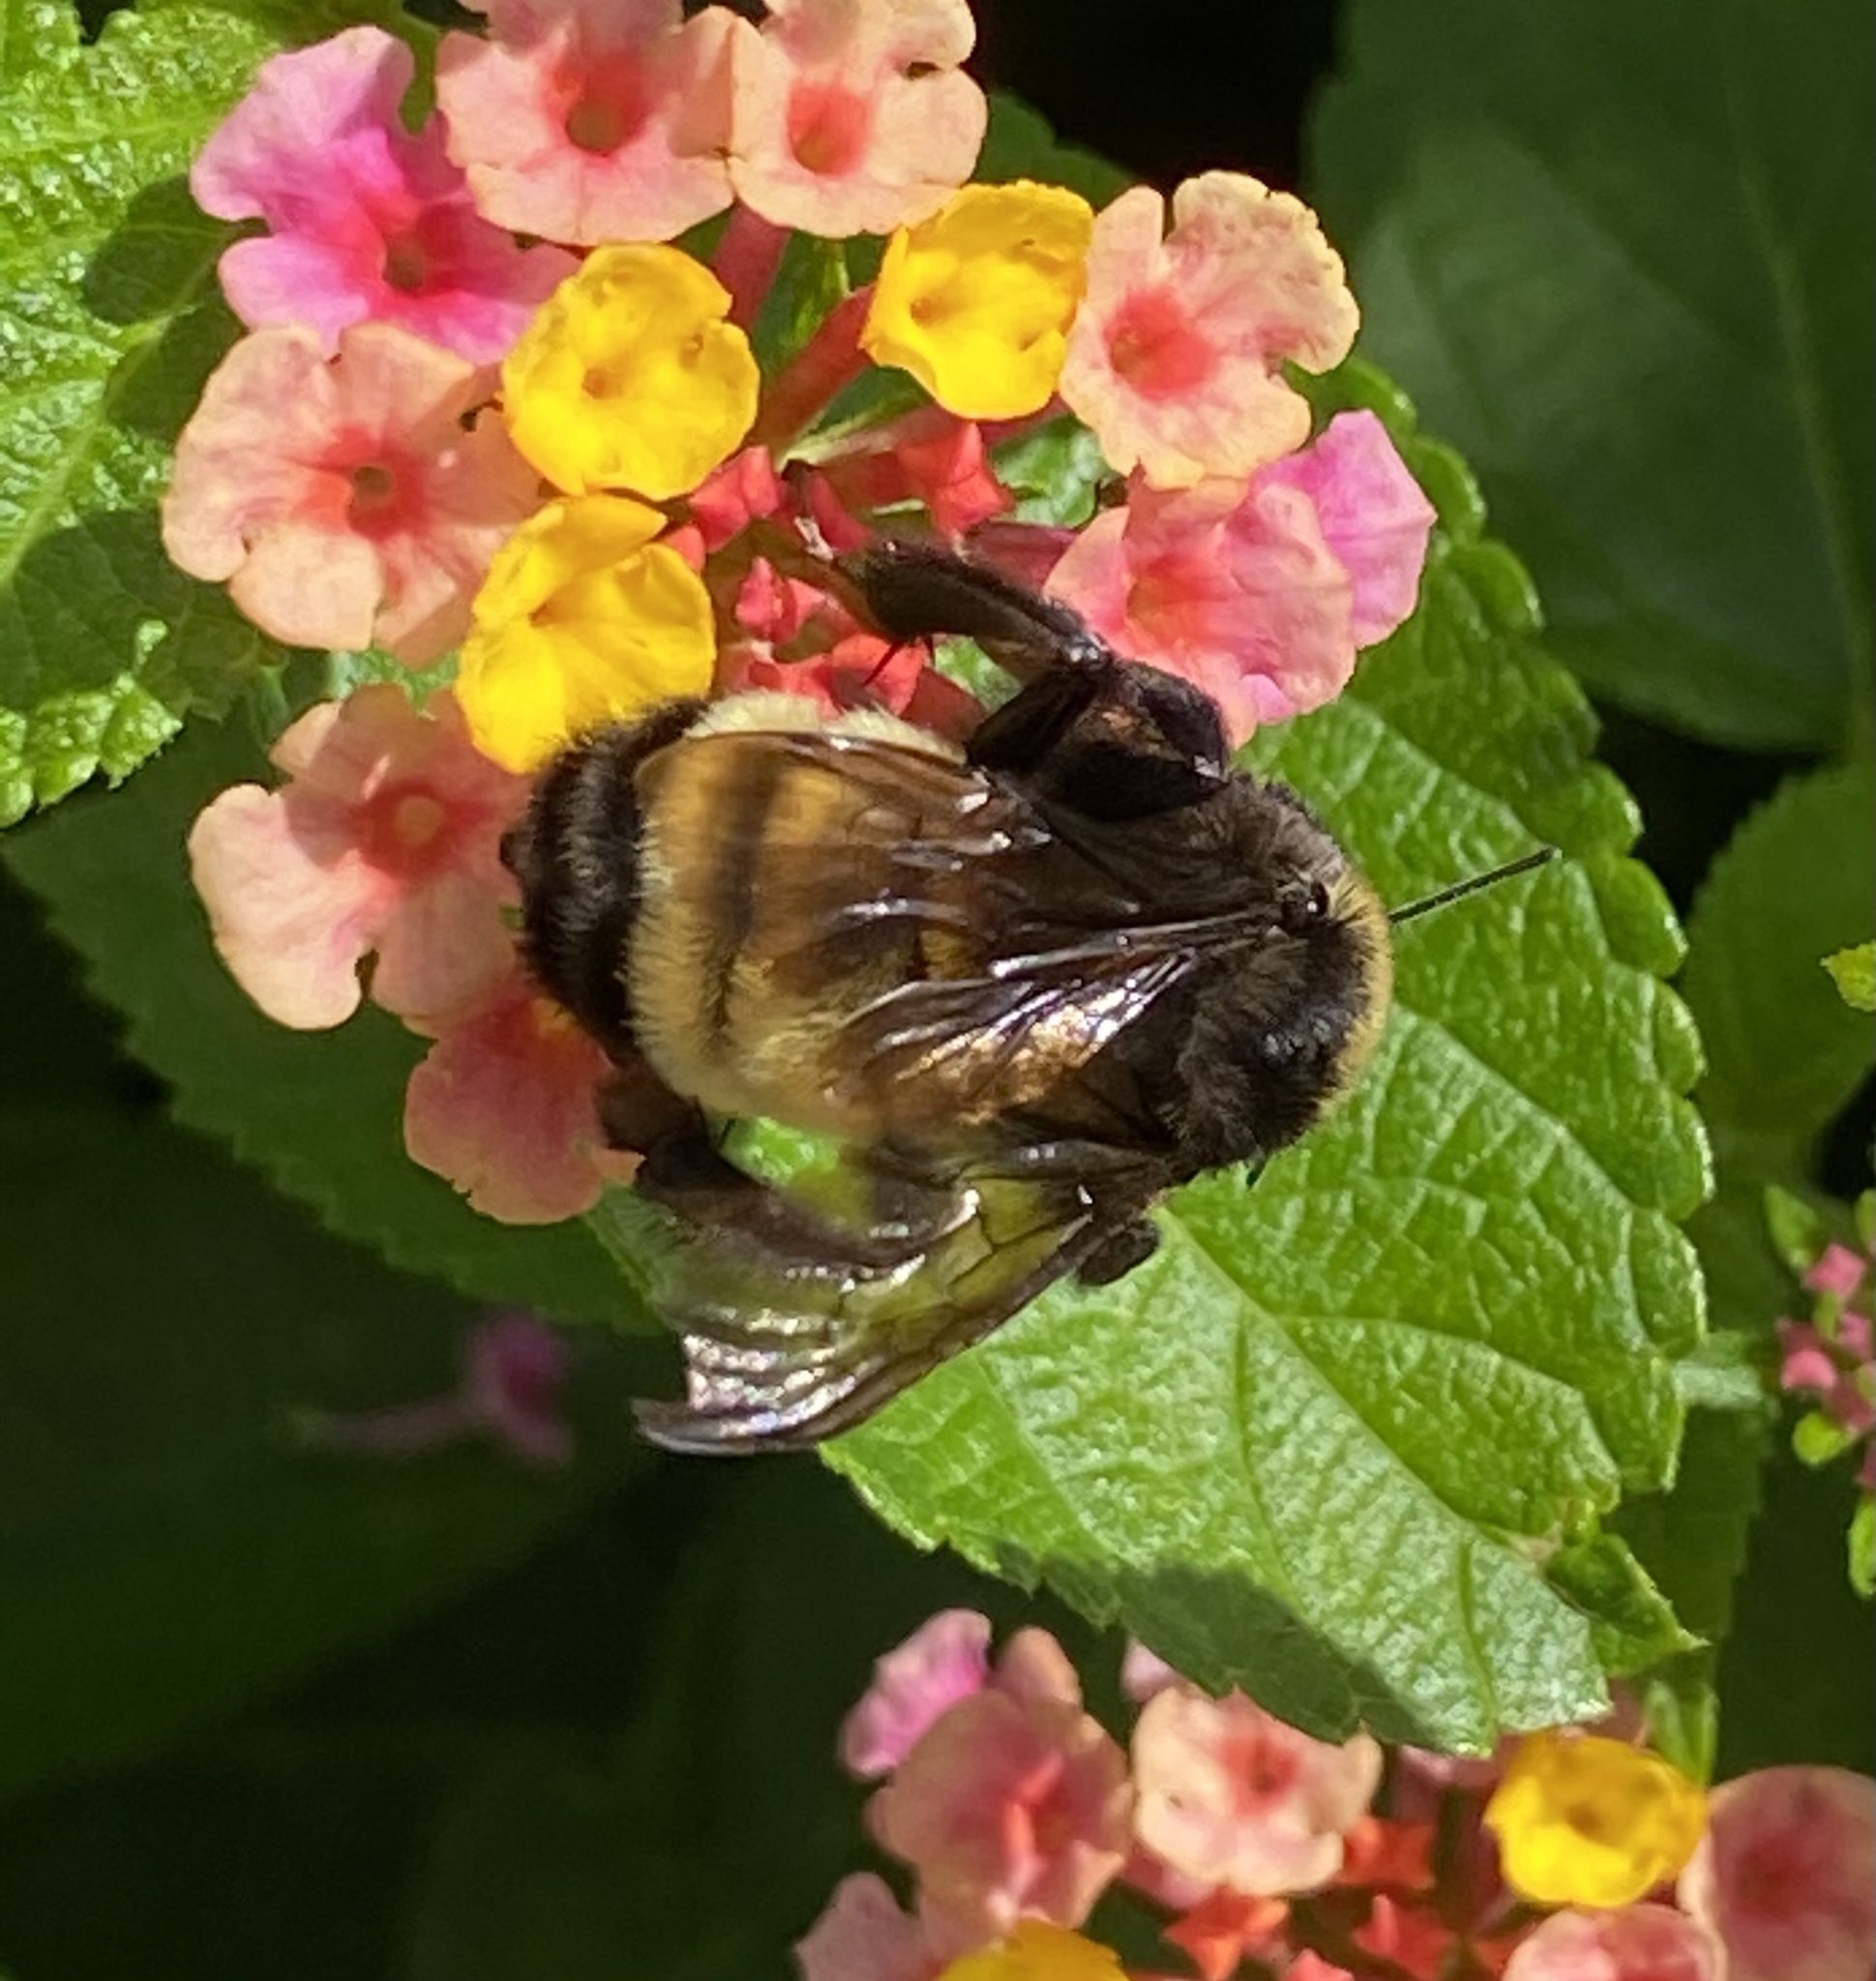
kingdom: Animalia
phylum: Arthropoda
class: Insecta
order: Hymenoptera
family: Apidae
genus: Bombus
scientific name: Bombus pensylvanicus
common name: Bumble bee
